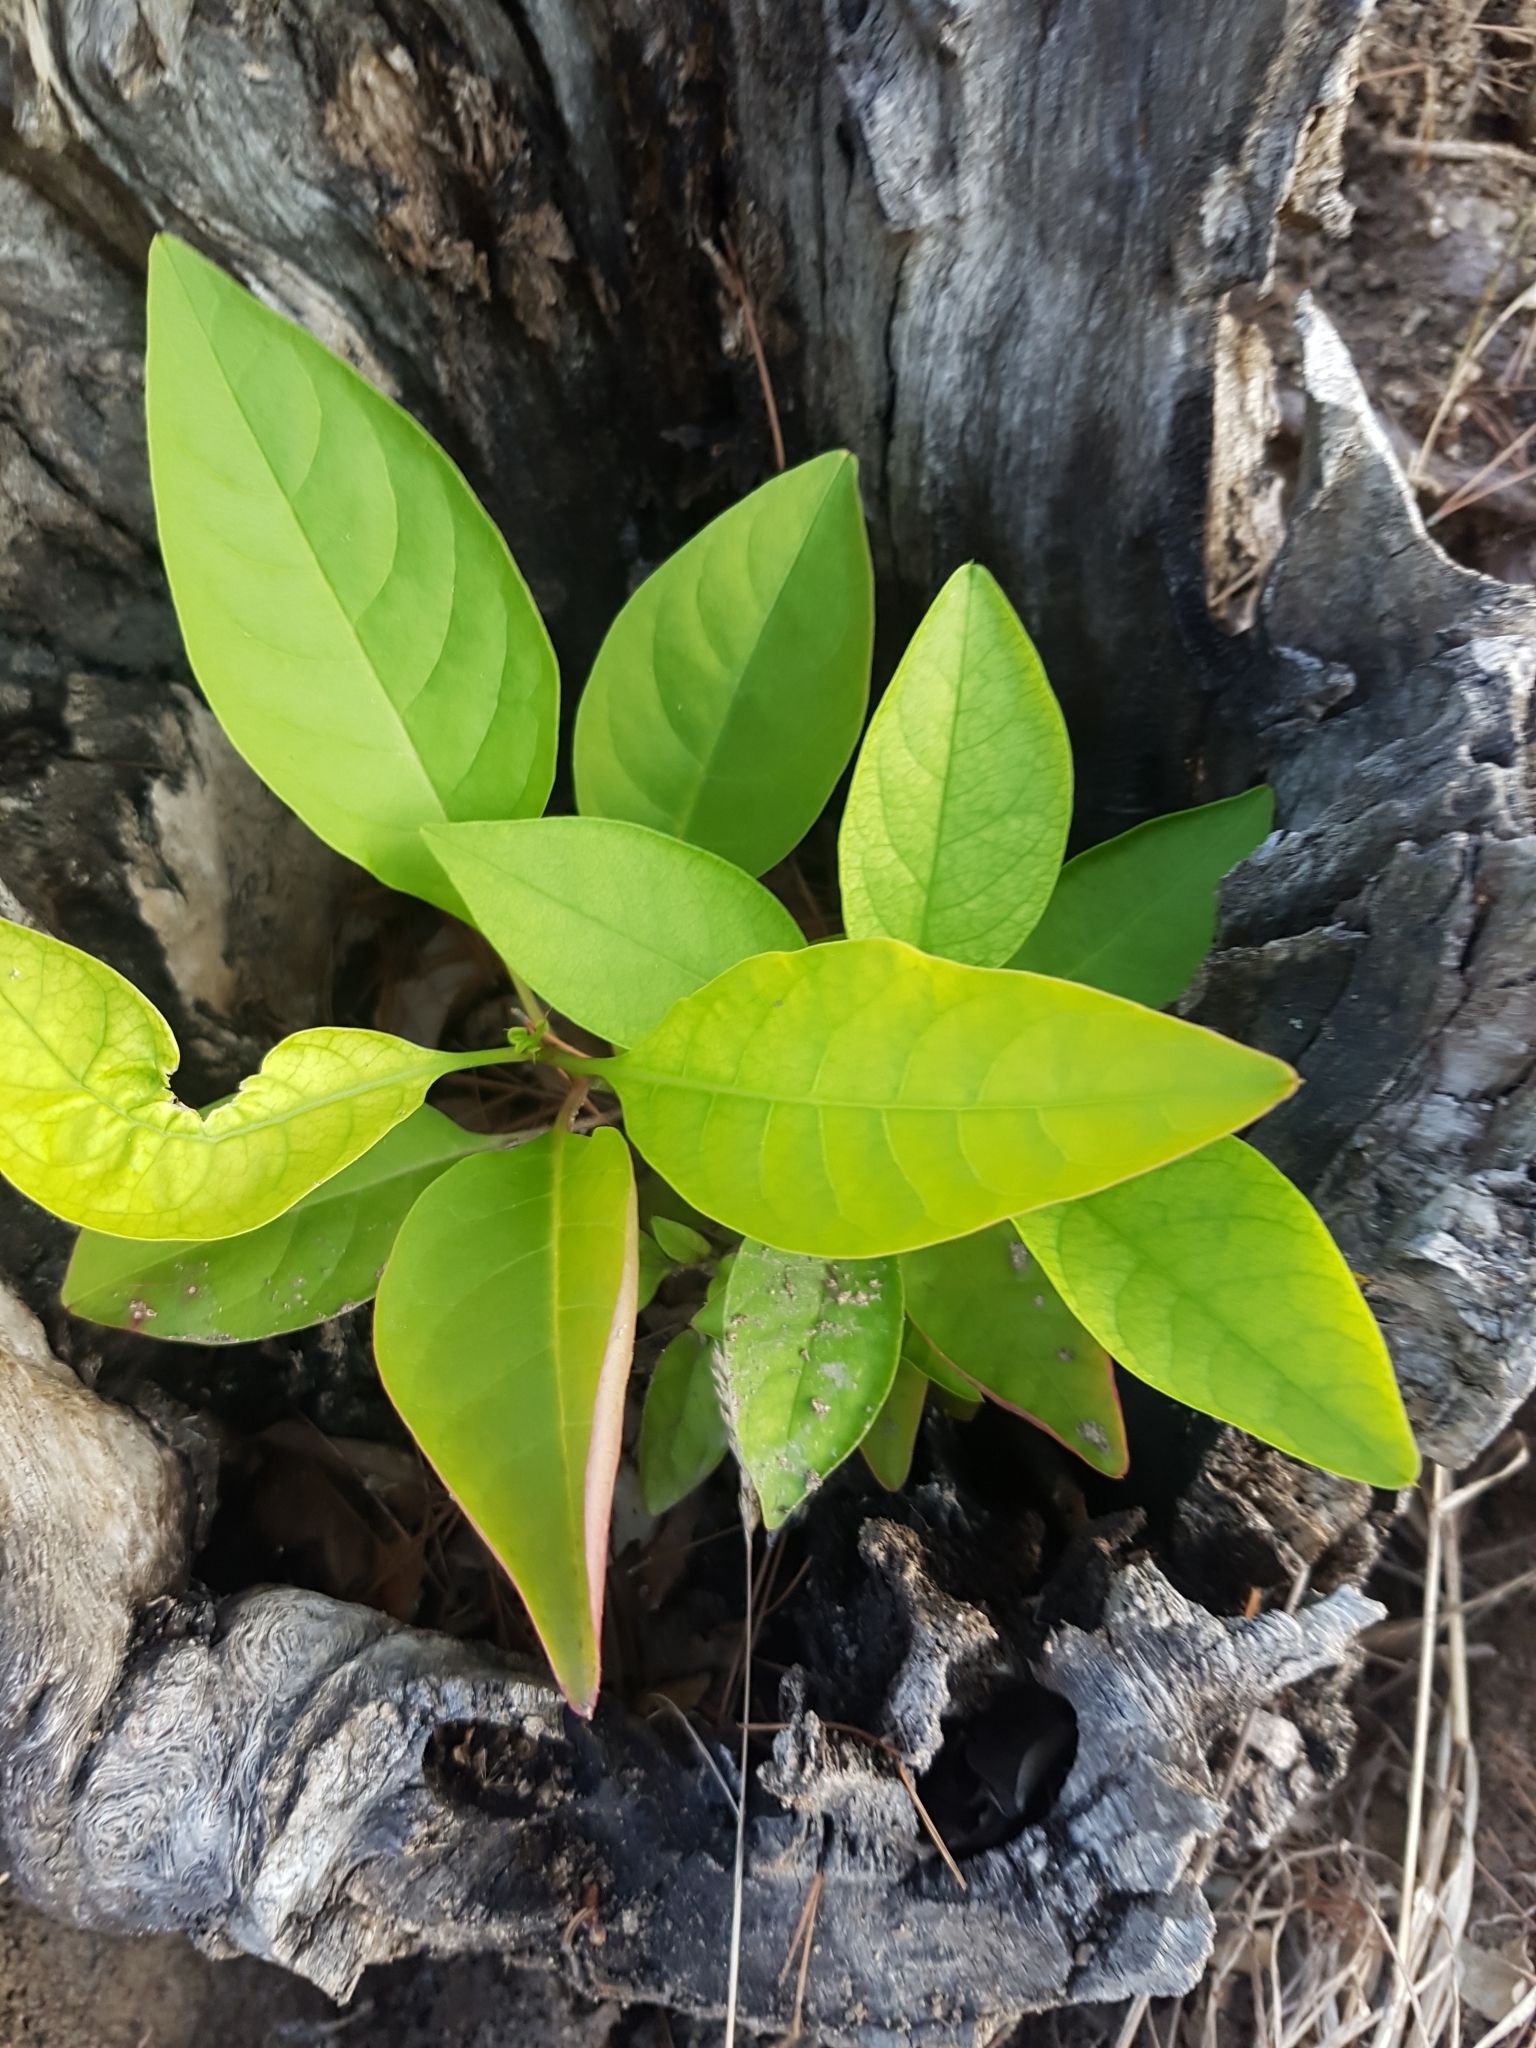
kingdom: Plantae
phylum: Tracheophyta
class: Magnoliopsida
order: Caryophyllales
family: Phytolaccaceae
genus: Phytolacca
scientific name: Phytolacca americana
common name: American pokeweed
